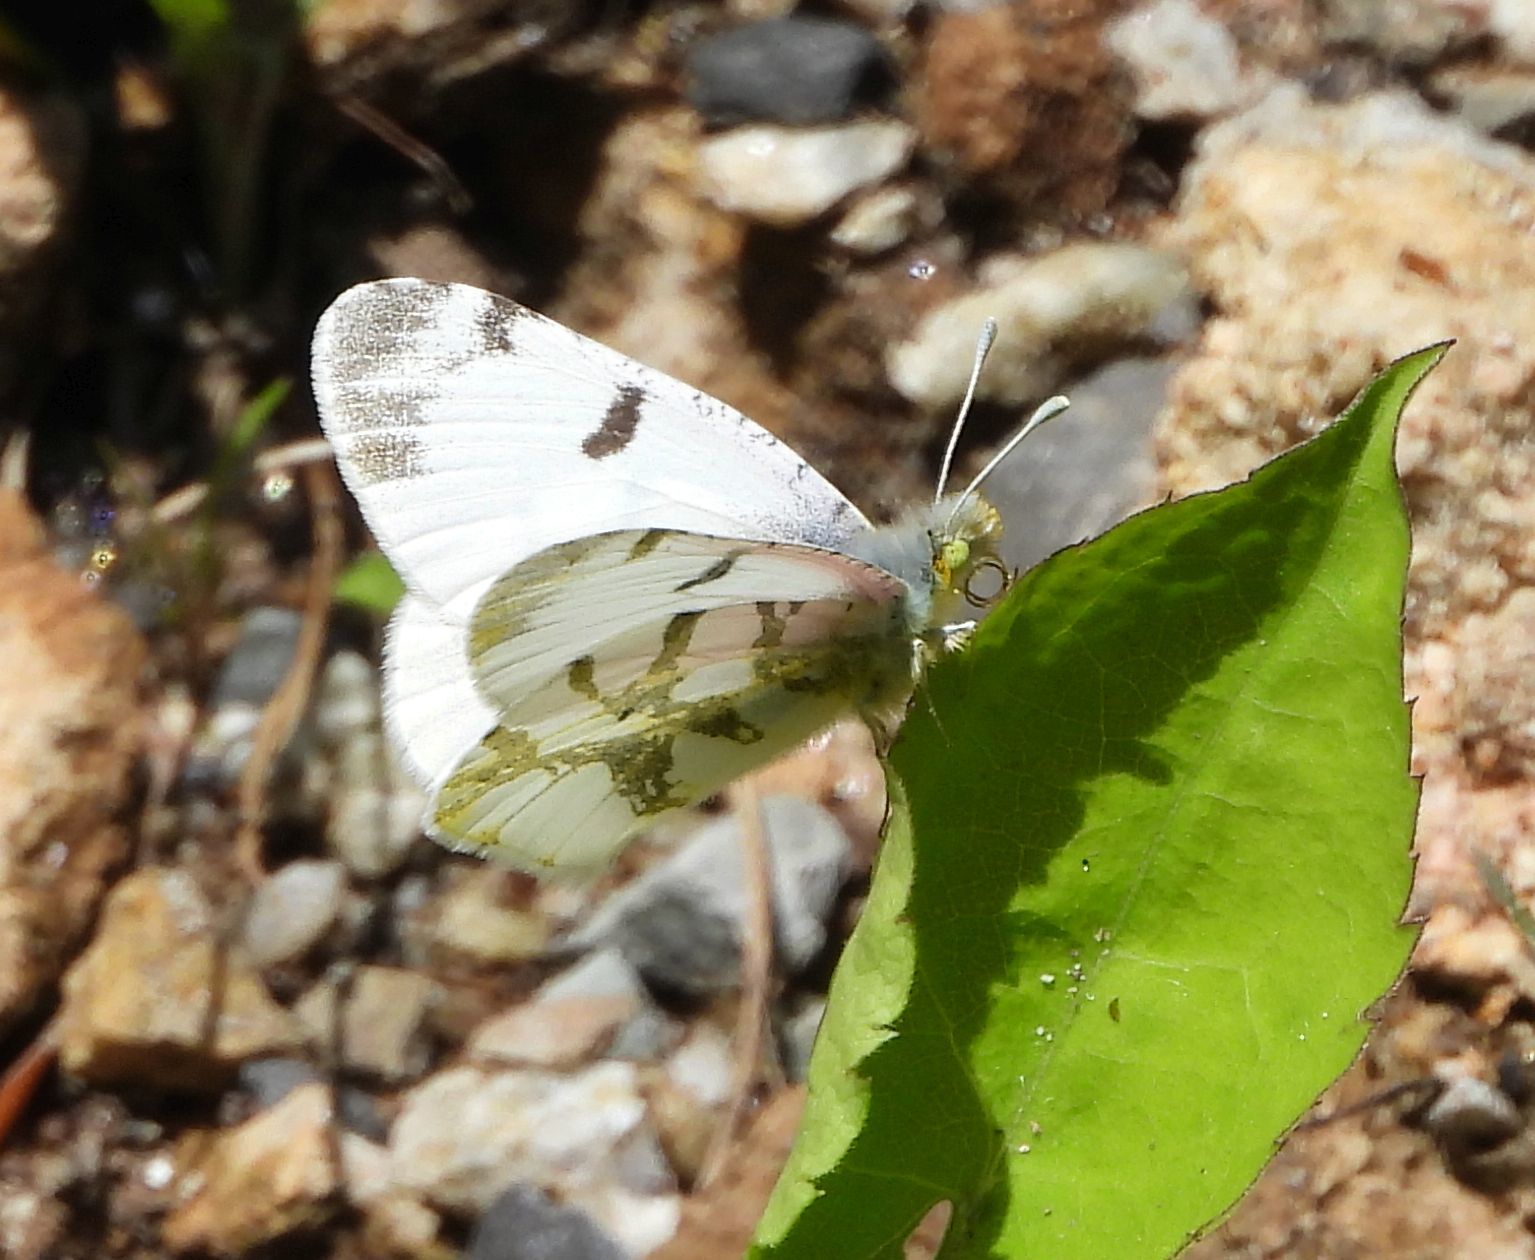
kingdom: Animalia
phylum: Arthropoda
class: Insecta
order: Lepidoptera
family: Pieridae
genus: Euchloe
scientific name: Euchloe olympia
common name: Olympia
